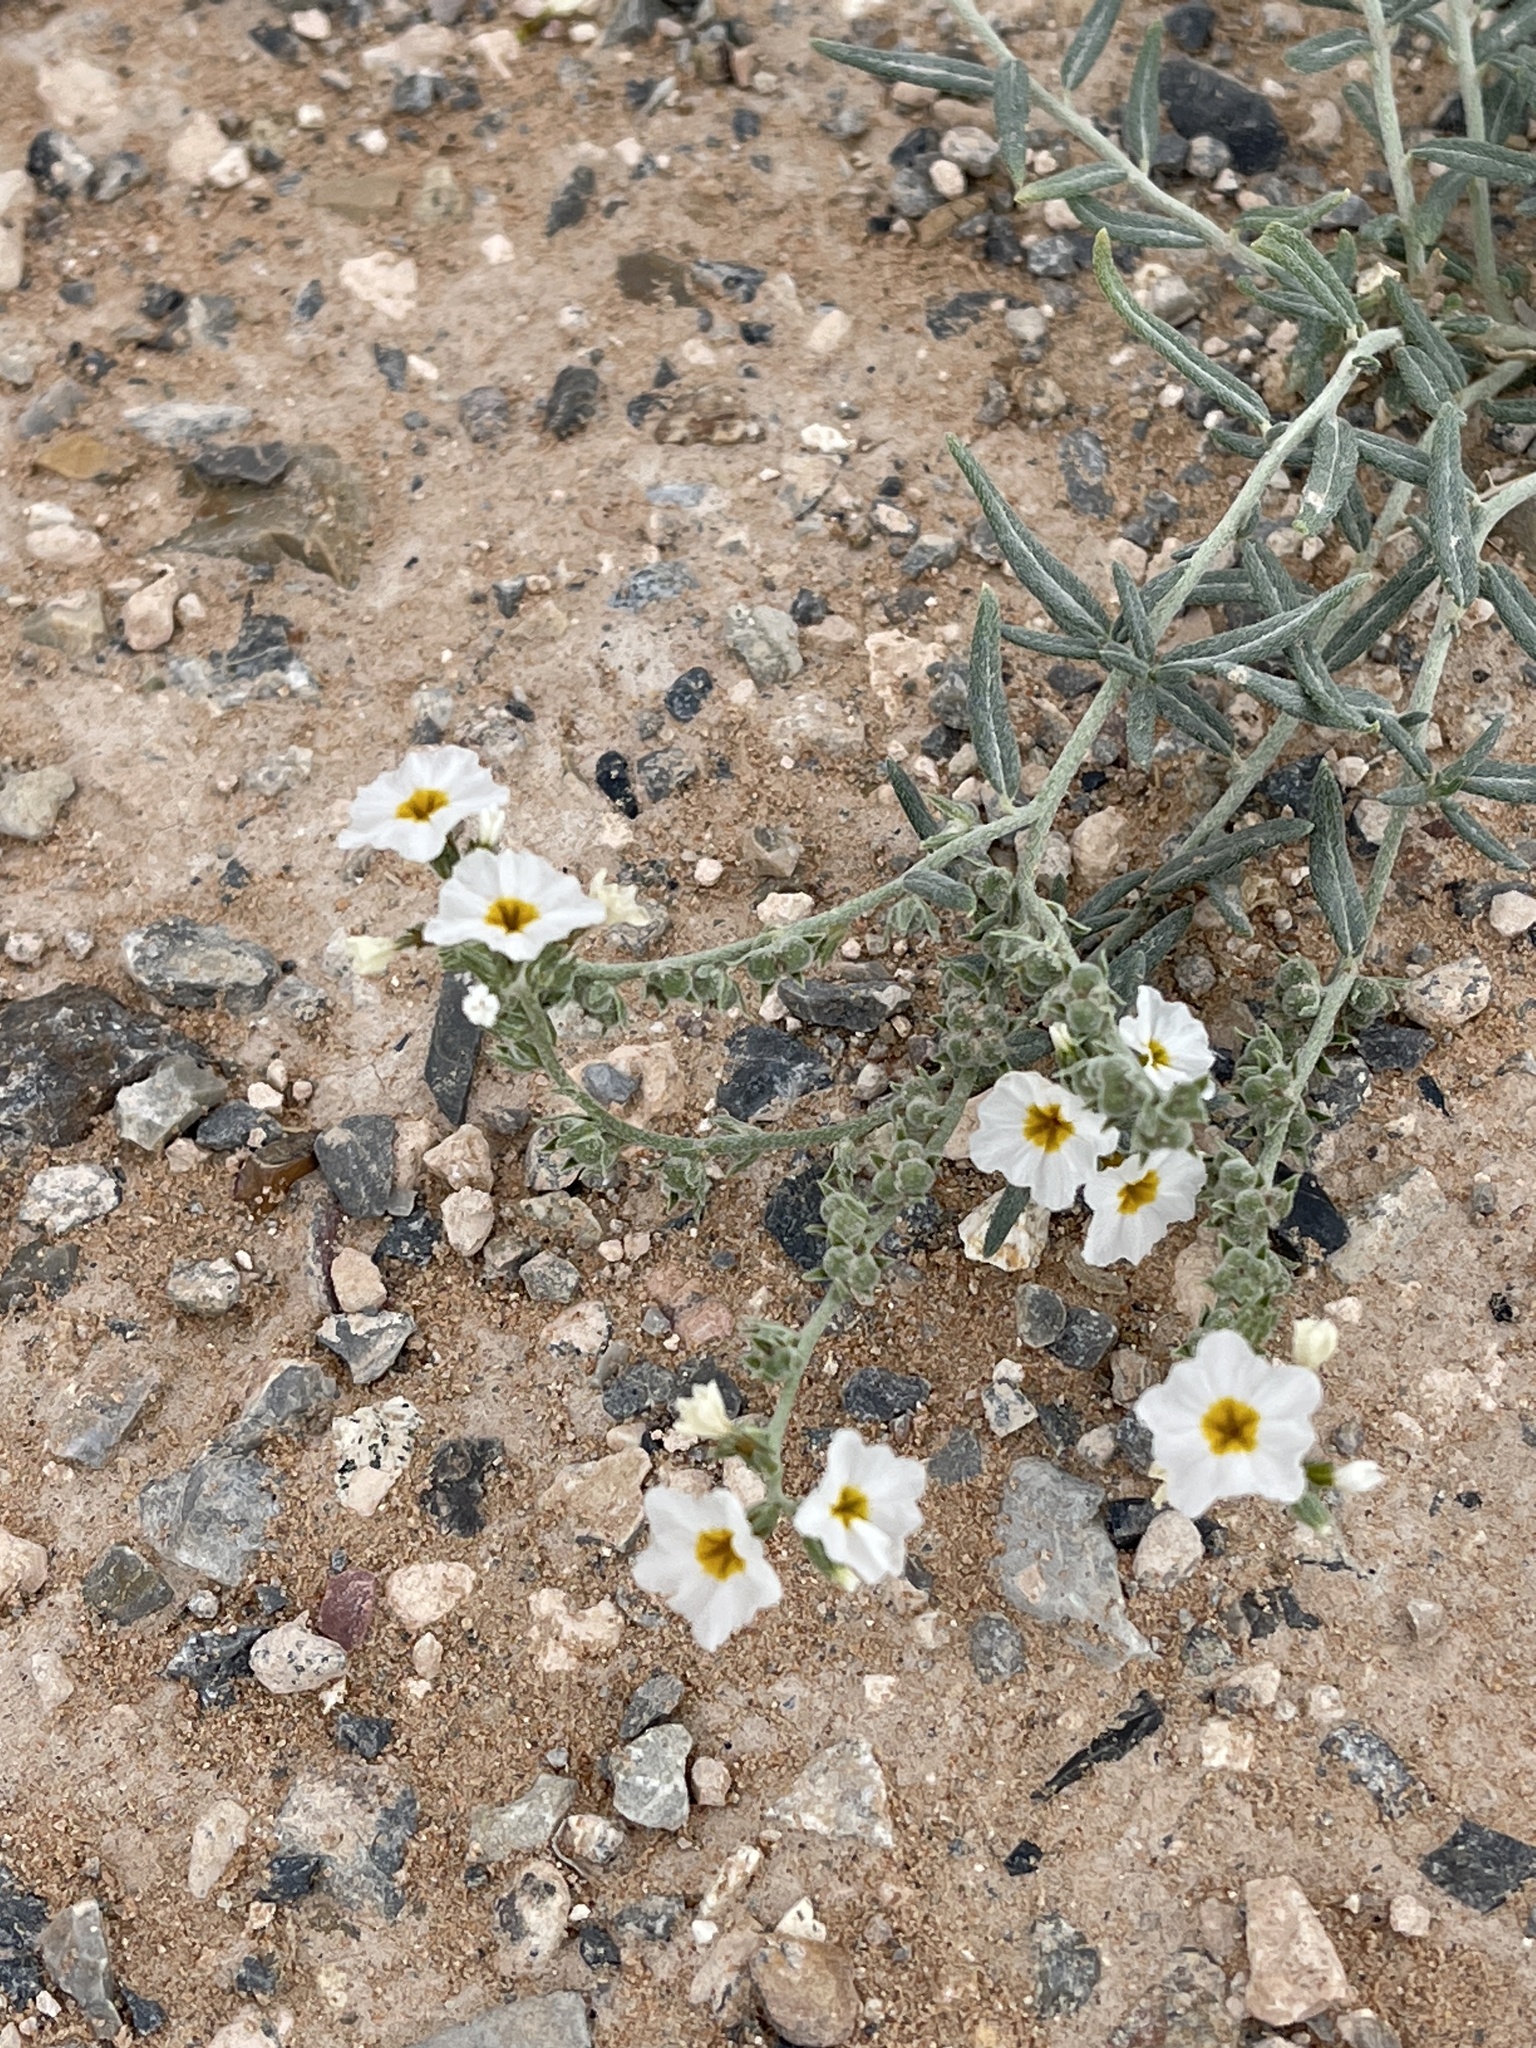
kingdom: Plantae
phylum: Tracheophyta
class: Magnoliopsida
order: Boraginales
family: Heliotropiaceae
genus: Euploca
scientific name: Euploca greggii
